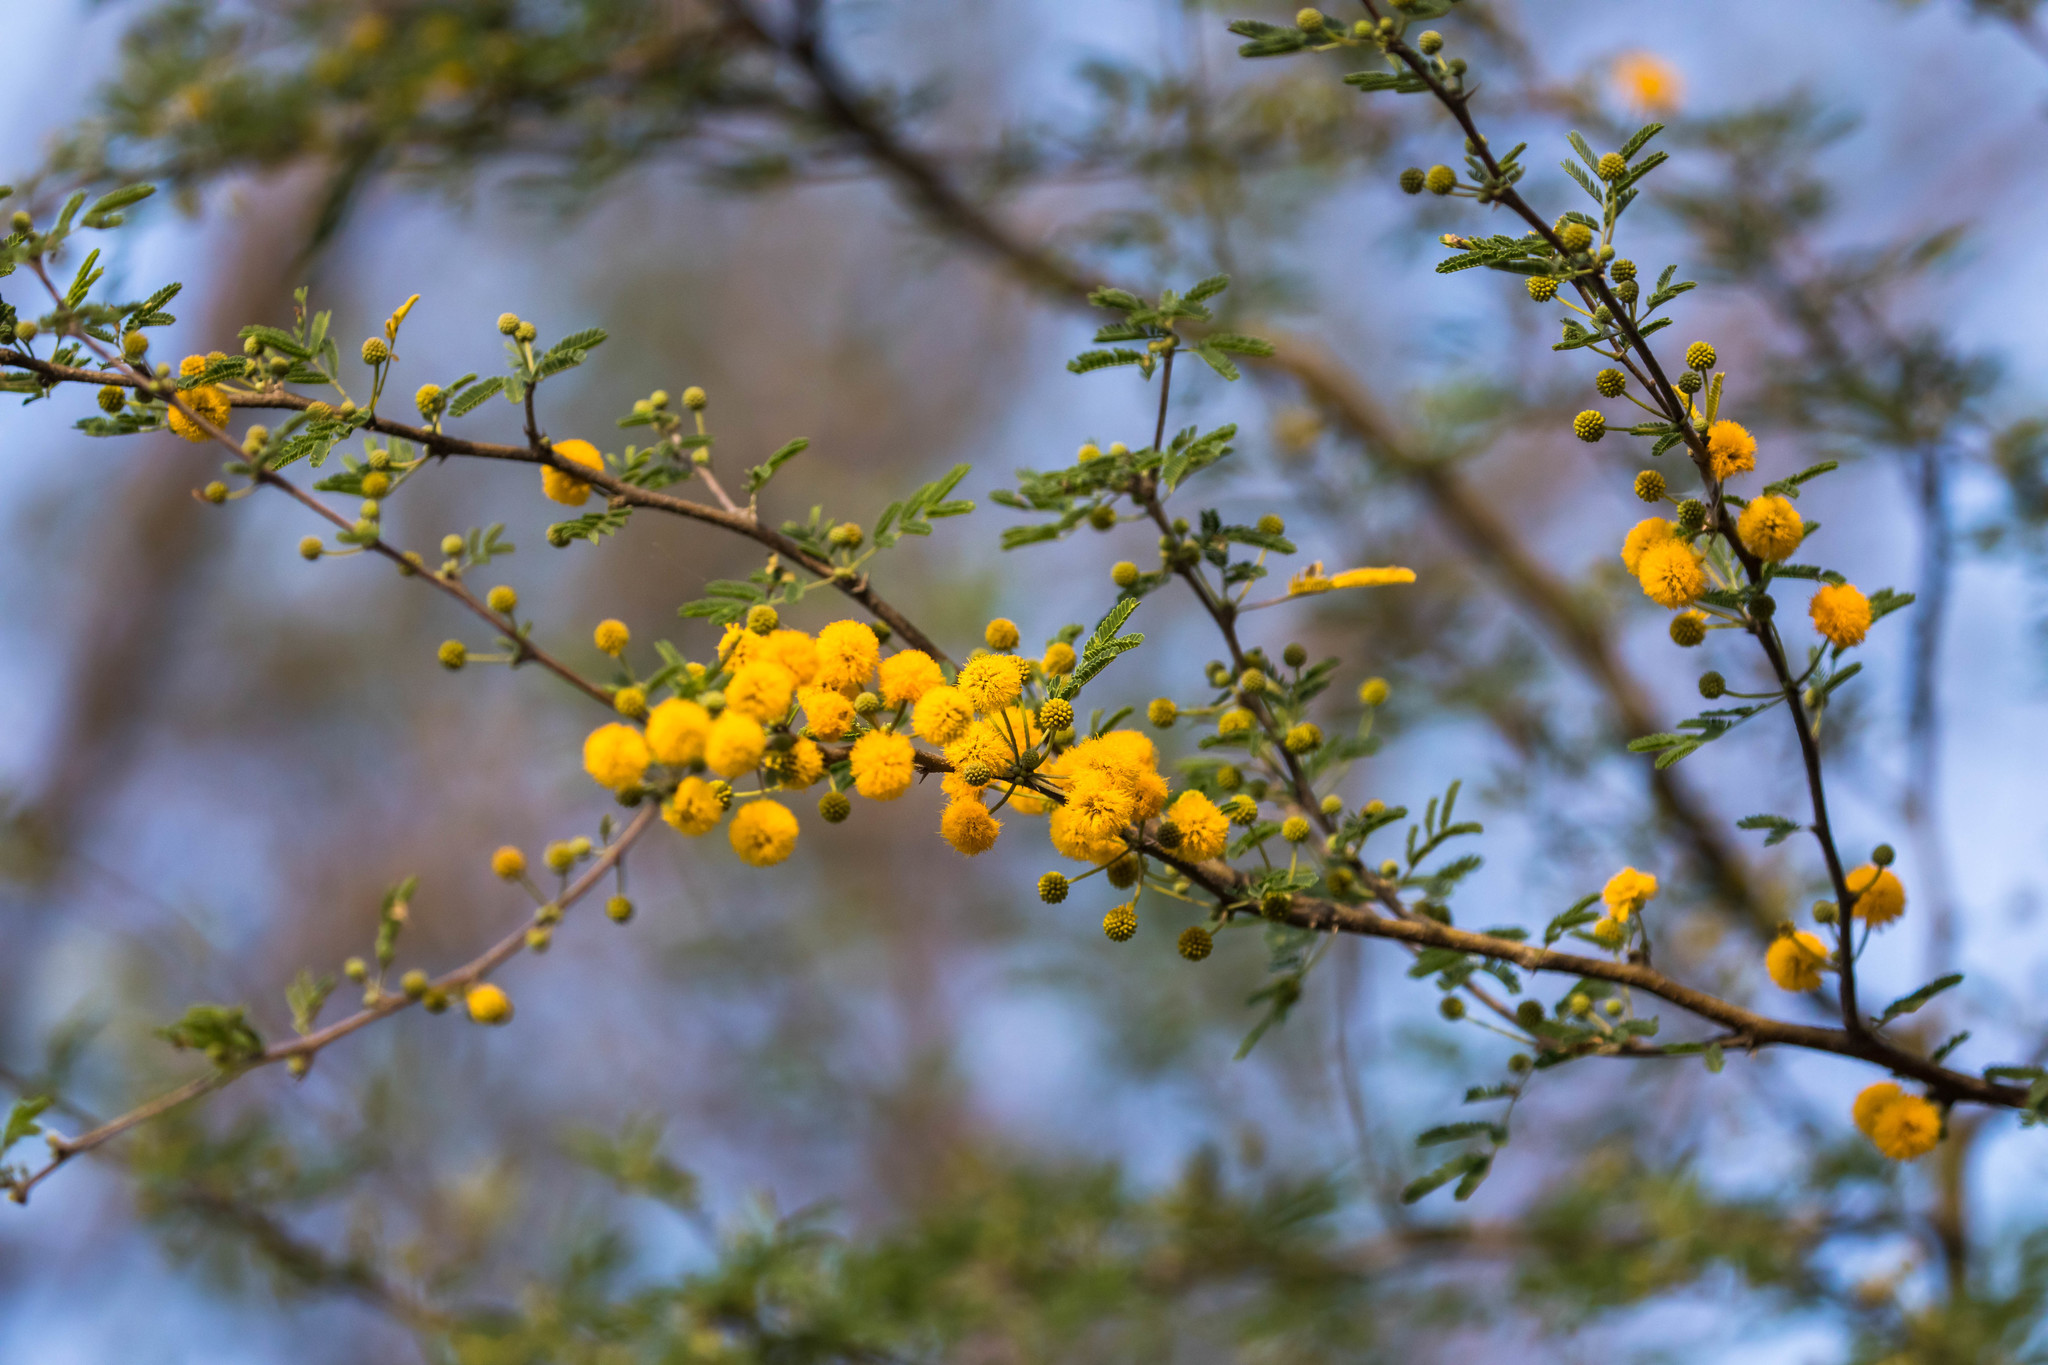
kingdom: Plantae
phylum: Tracheophyta
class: Magnoliopsida
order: Fabales
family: Fabaceae
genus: Vachellia
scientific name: Vachellia farnesiana
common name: Sweet acacia
